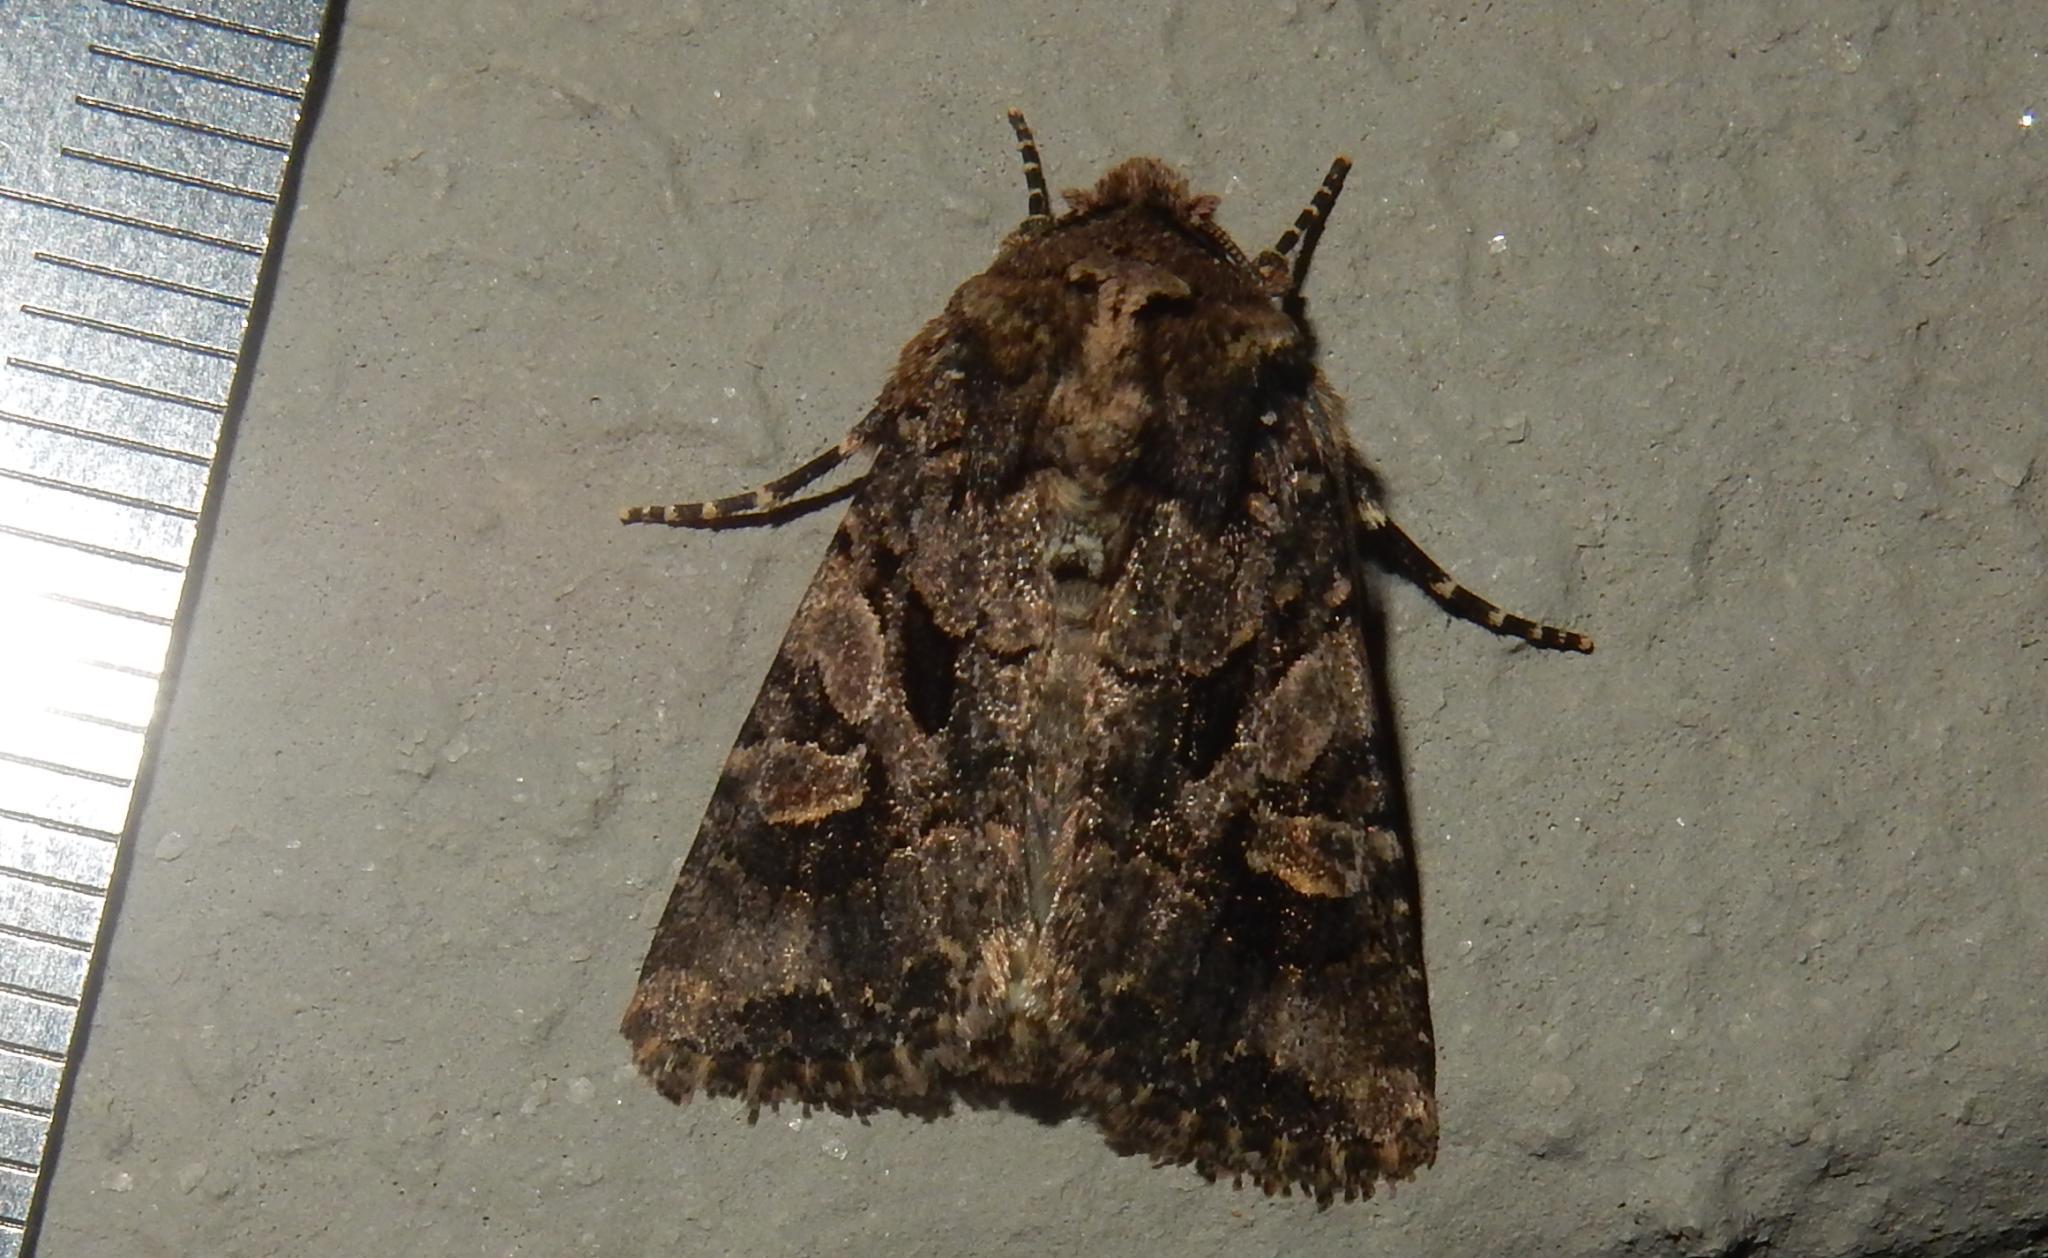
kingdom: Animalia
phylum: Arthropoda
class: Insecta
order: Lepidoptera
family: Noctuidae
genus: Tycomarptes
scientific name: Tycomarptes inferior
